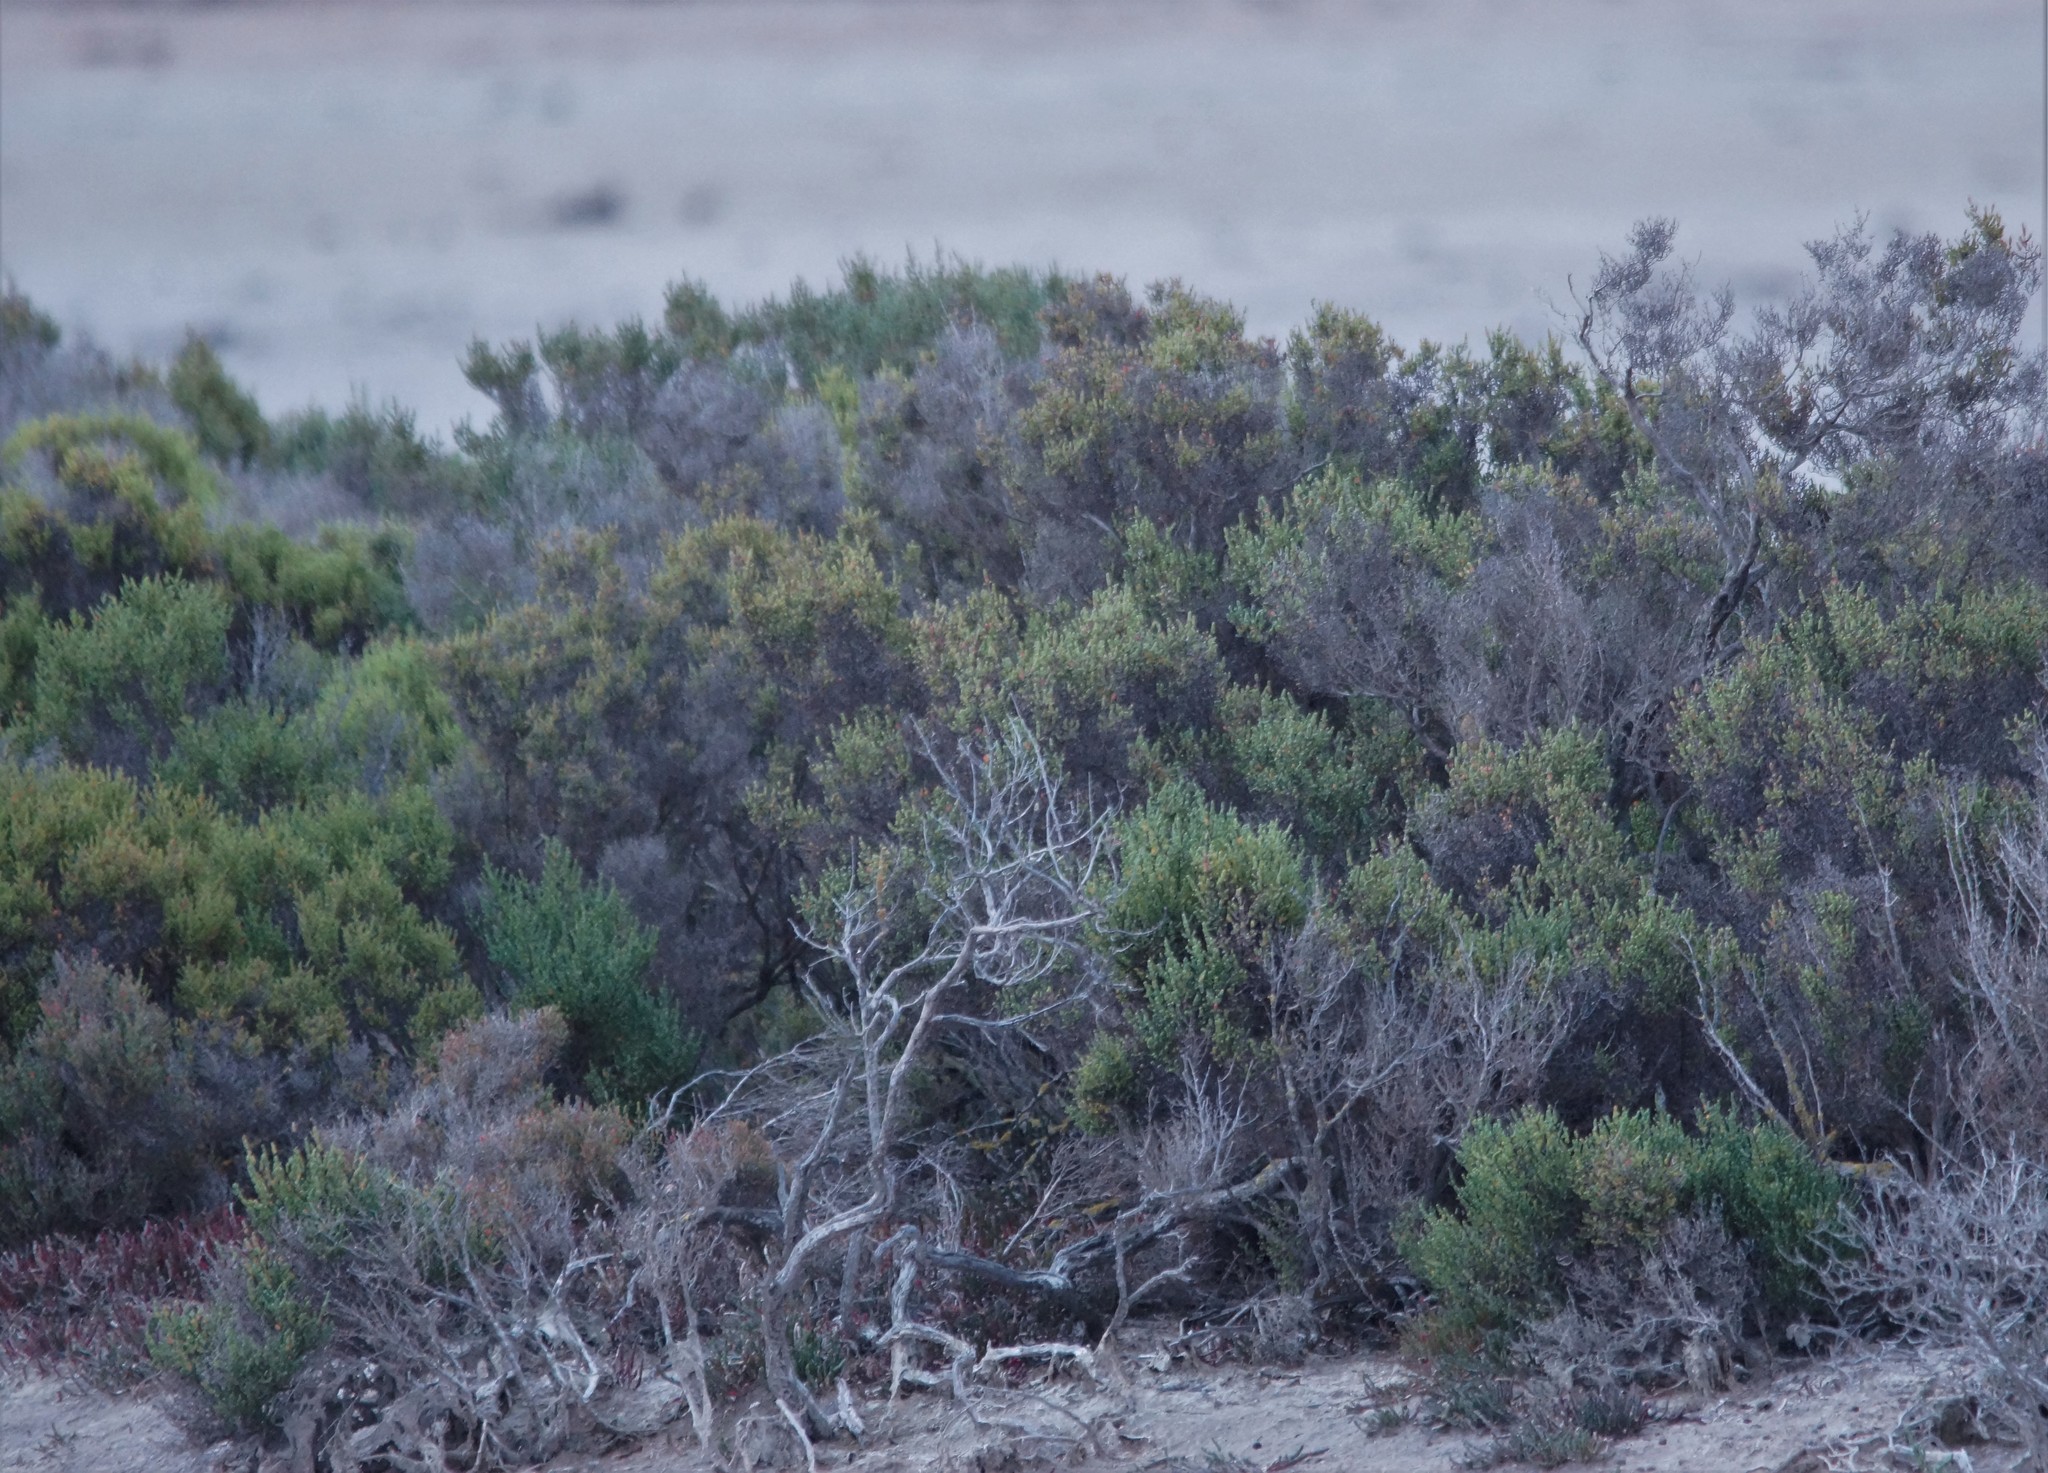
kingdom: Plantae
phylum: Tracheophyta
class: Magnoliopsida
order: Caryophyllales
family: Amaranthaceae
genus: Tecticornia
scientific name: Tecticornia arbuscula
